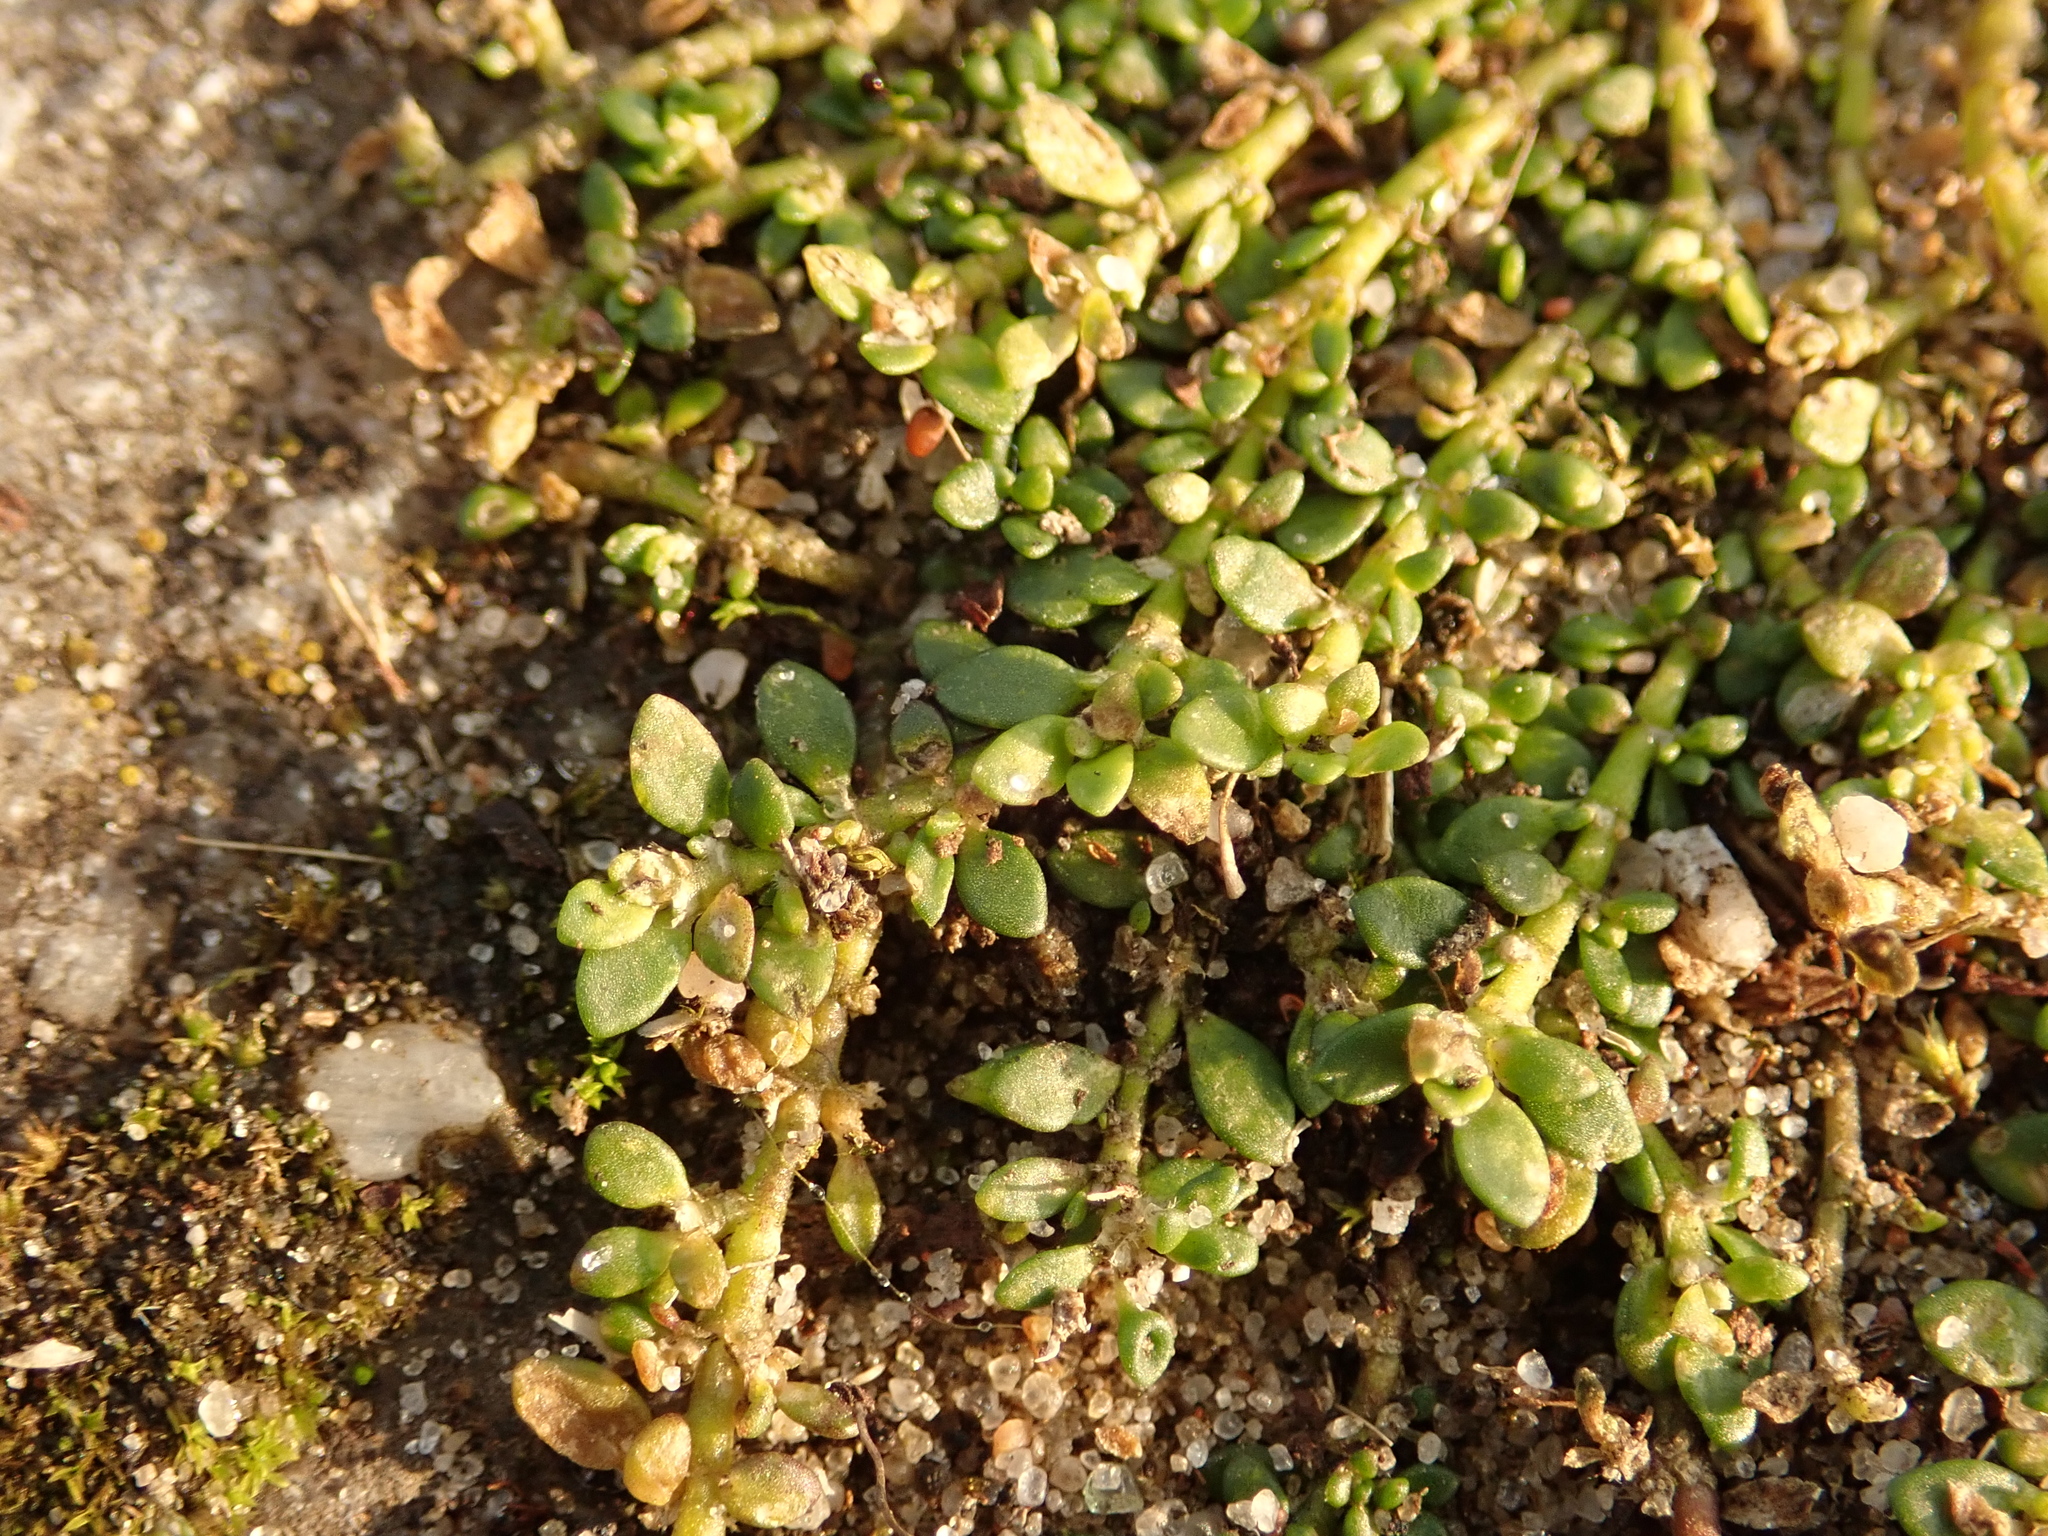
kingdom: Plantae
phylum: Tracheophyta
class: Magnoliopsida
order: Caryophyllales
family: Caryophyllaceae
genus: Herniaria
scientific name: Herniaria glabra
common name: Smooth rupturewort
